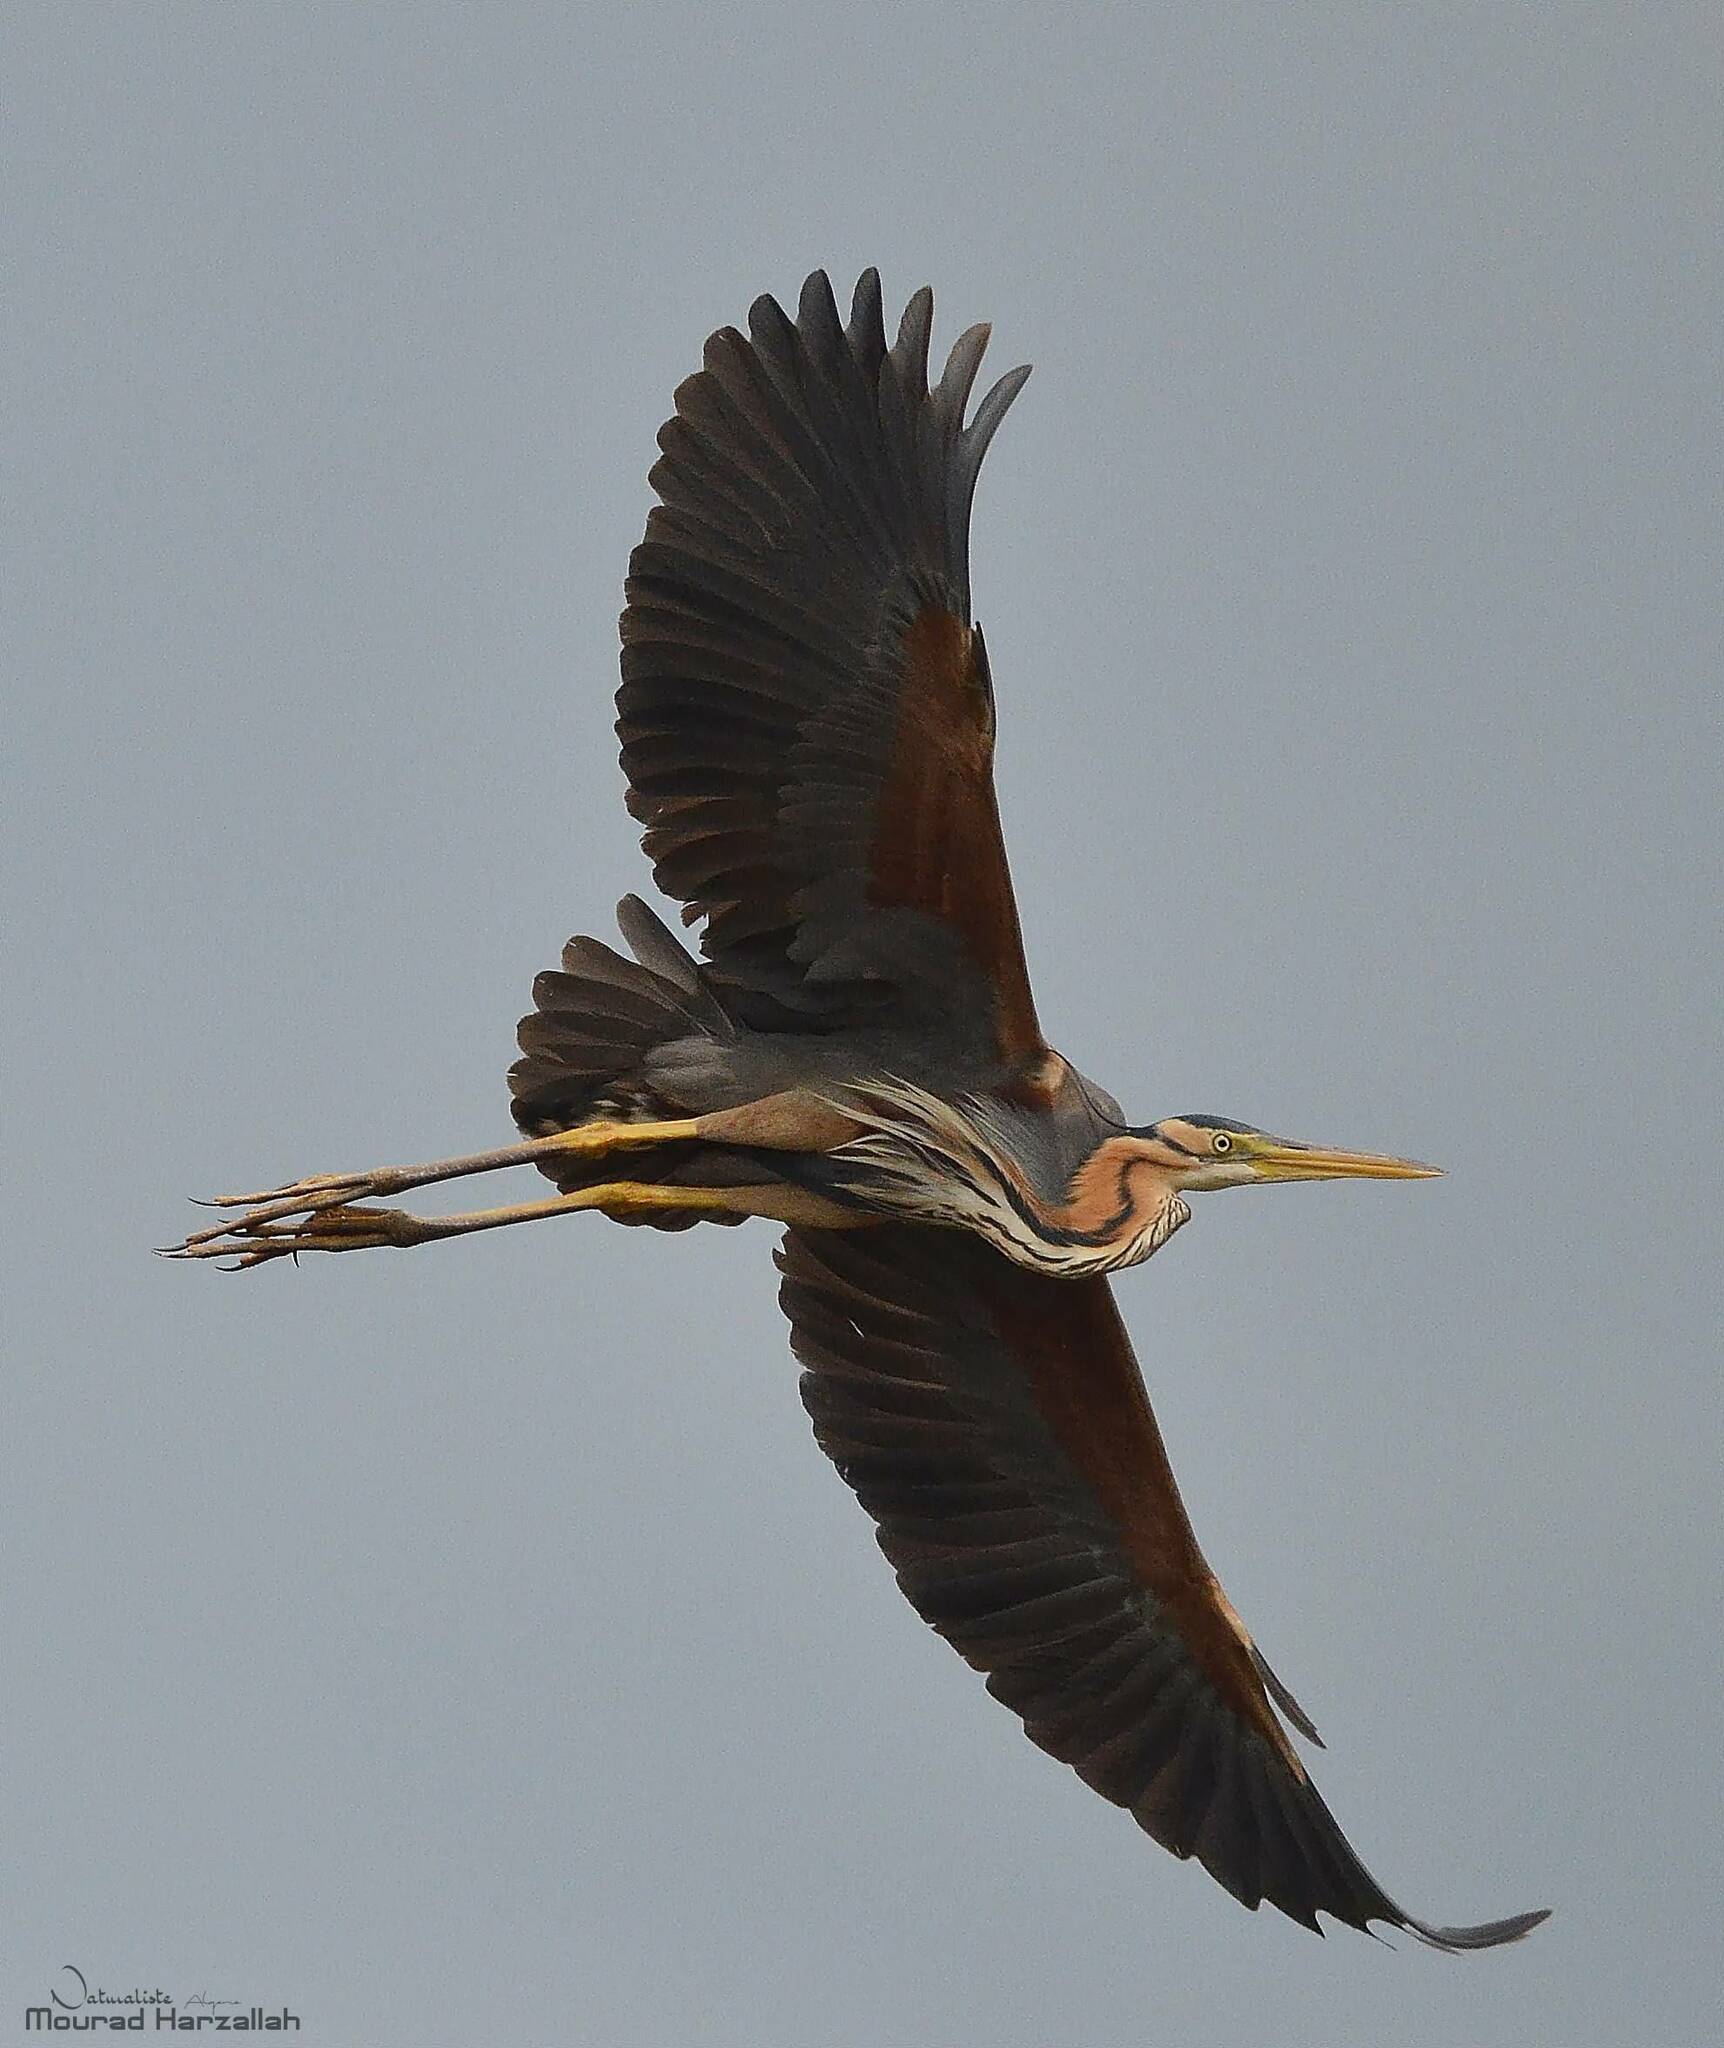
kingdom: Animalia
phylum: Chordata
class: Aves
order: Pelecaniformes
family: Ardeidae
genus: Ardea
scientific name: Ardea purpurea
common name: Purple heron
